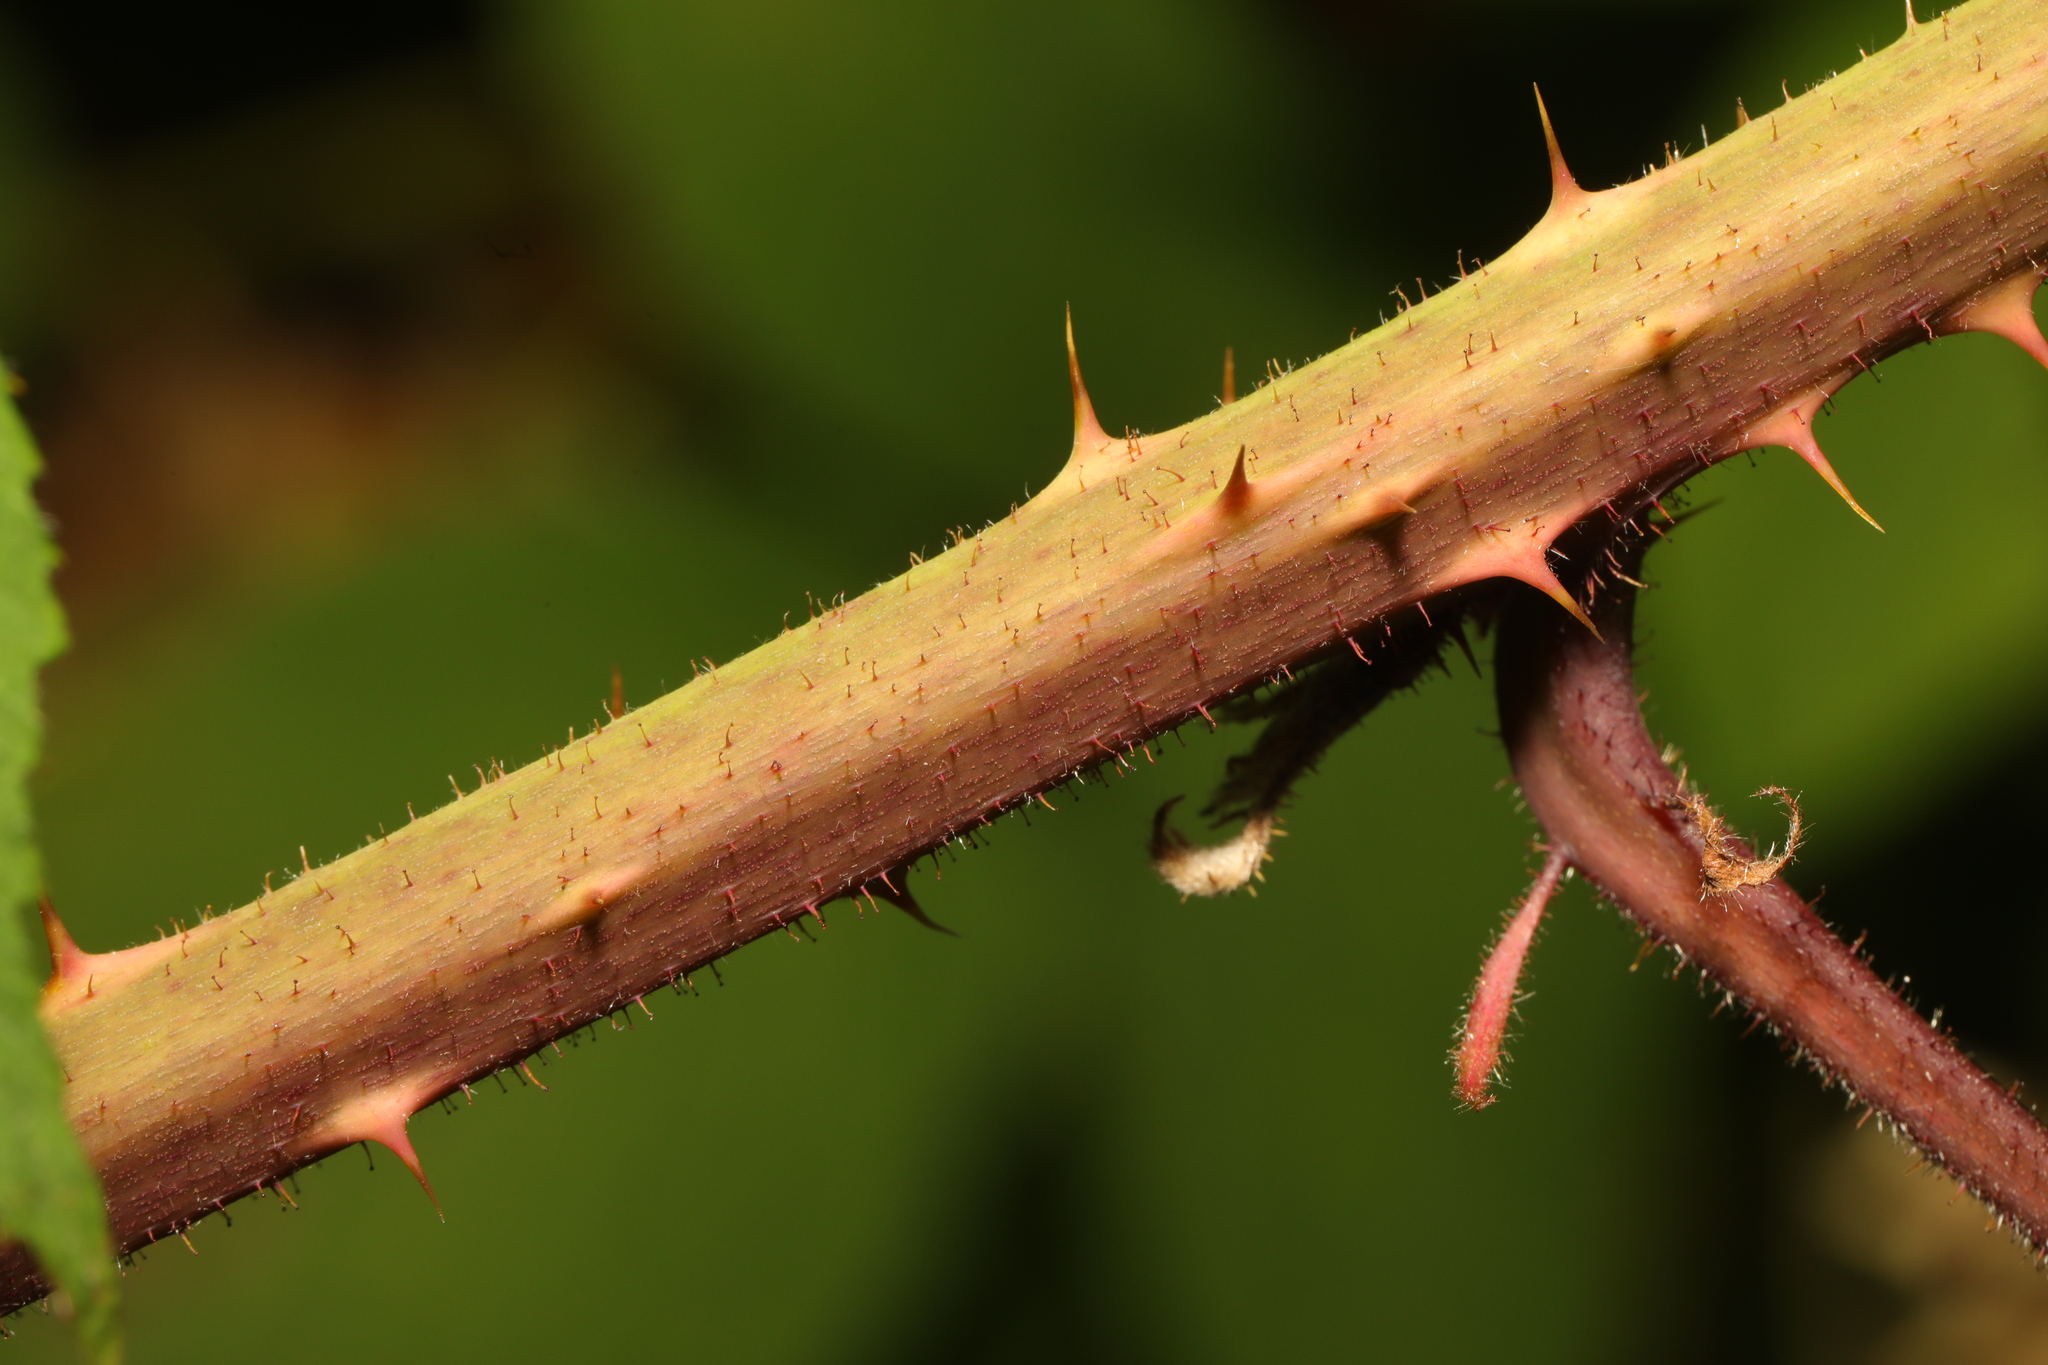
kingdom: Plantae
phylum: Tracheophyta
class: Magnoliopsida
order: Rosales
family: Rosaceae
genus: Rubus
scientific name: Rubus rufescens
